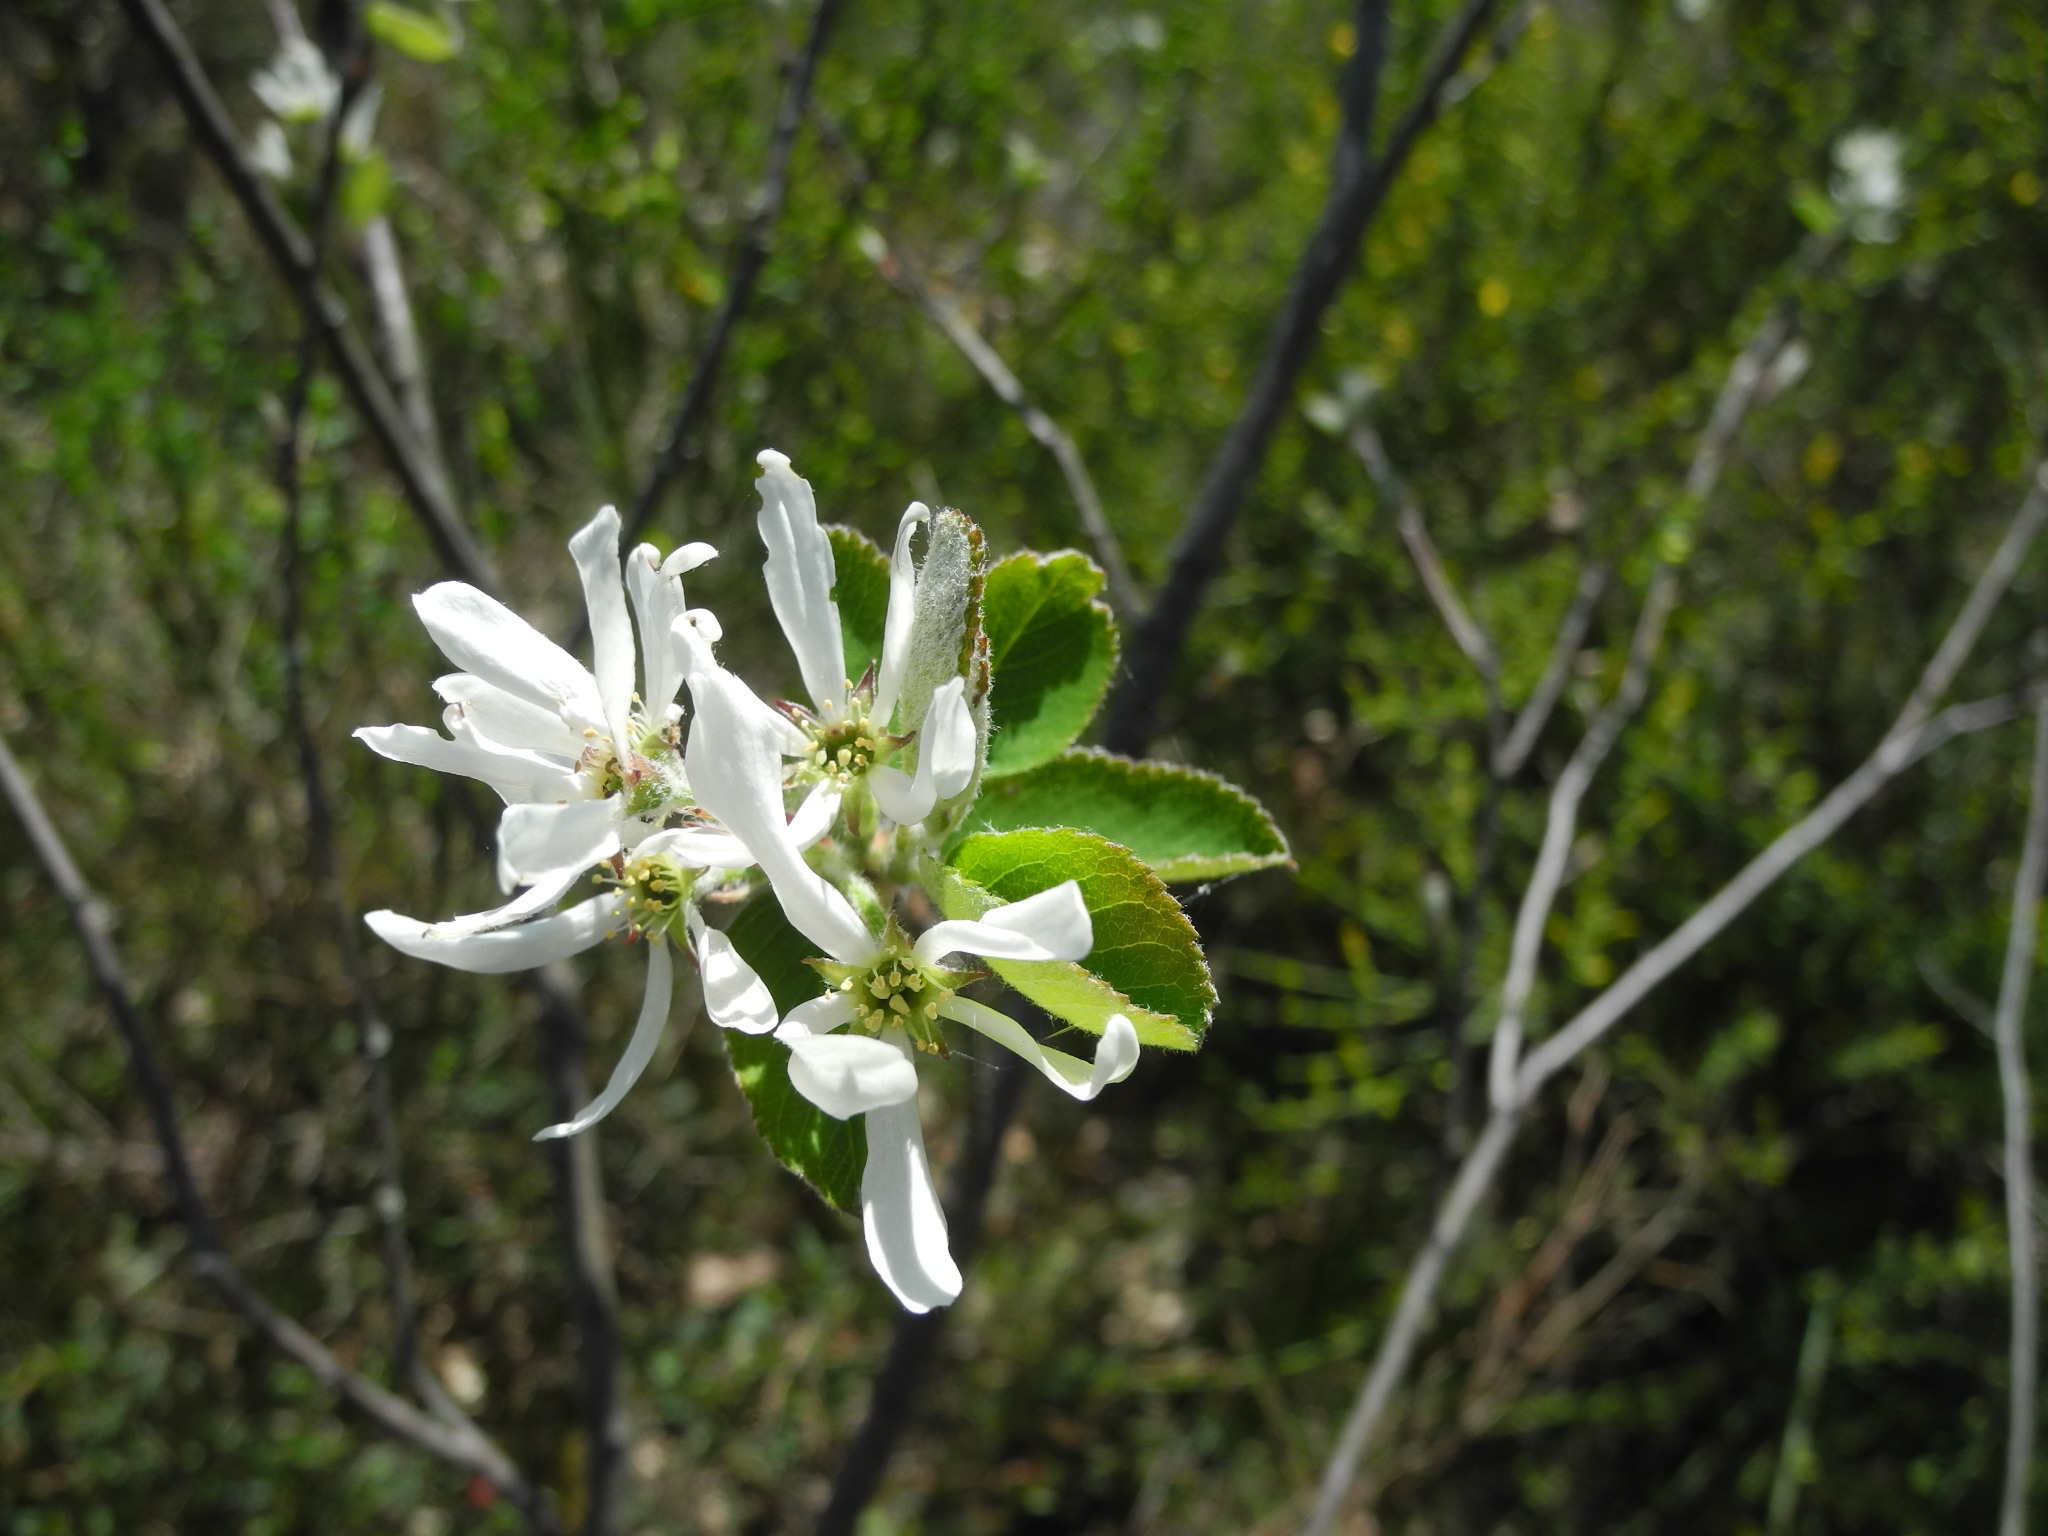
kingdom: Plantae
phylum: Tracheophyta
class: Magnoliopsida
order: Rosales
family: Rosaceae
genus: Amelanchier
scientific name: Amelanchier ovalis
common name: Serviceberry
